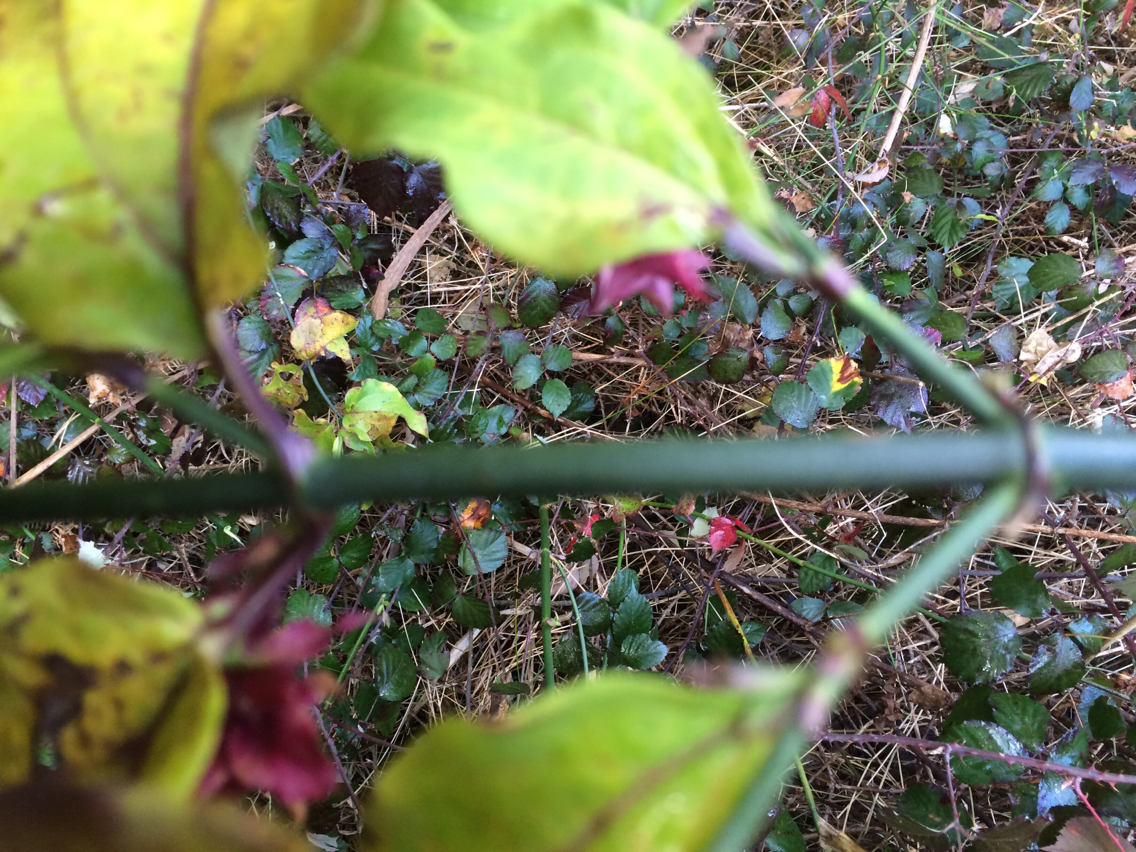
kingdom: Plantae
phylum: Tracheophyta
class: Magnoliopsida
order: Dipsacales
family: Caprifoliaceae
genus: Leycesteria
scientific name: Leycesteria formosa
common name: Himalayan honeysuckle
